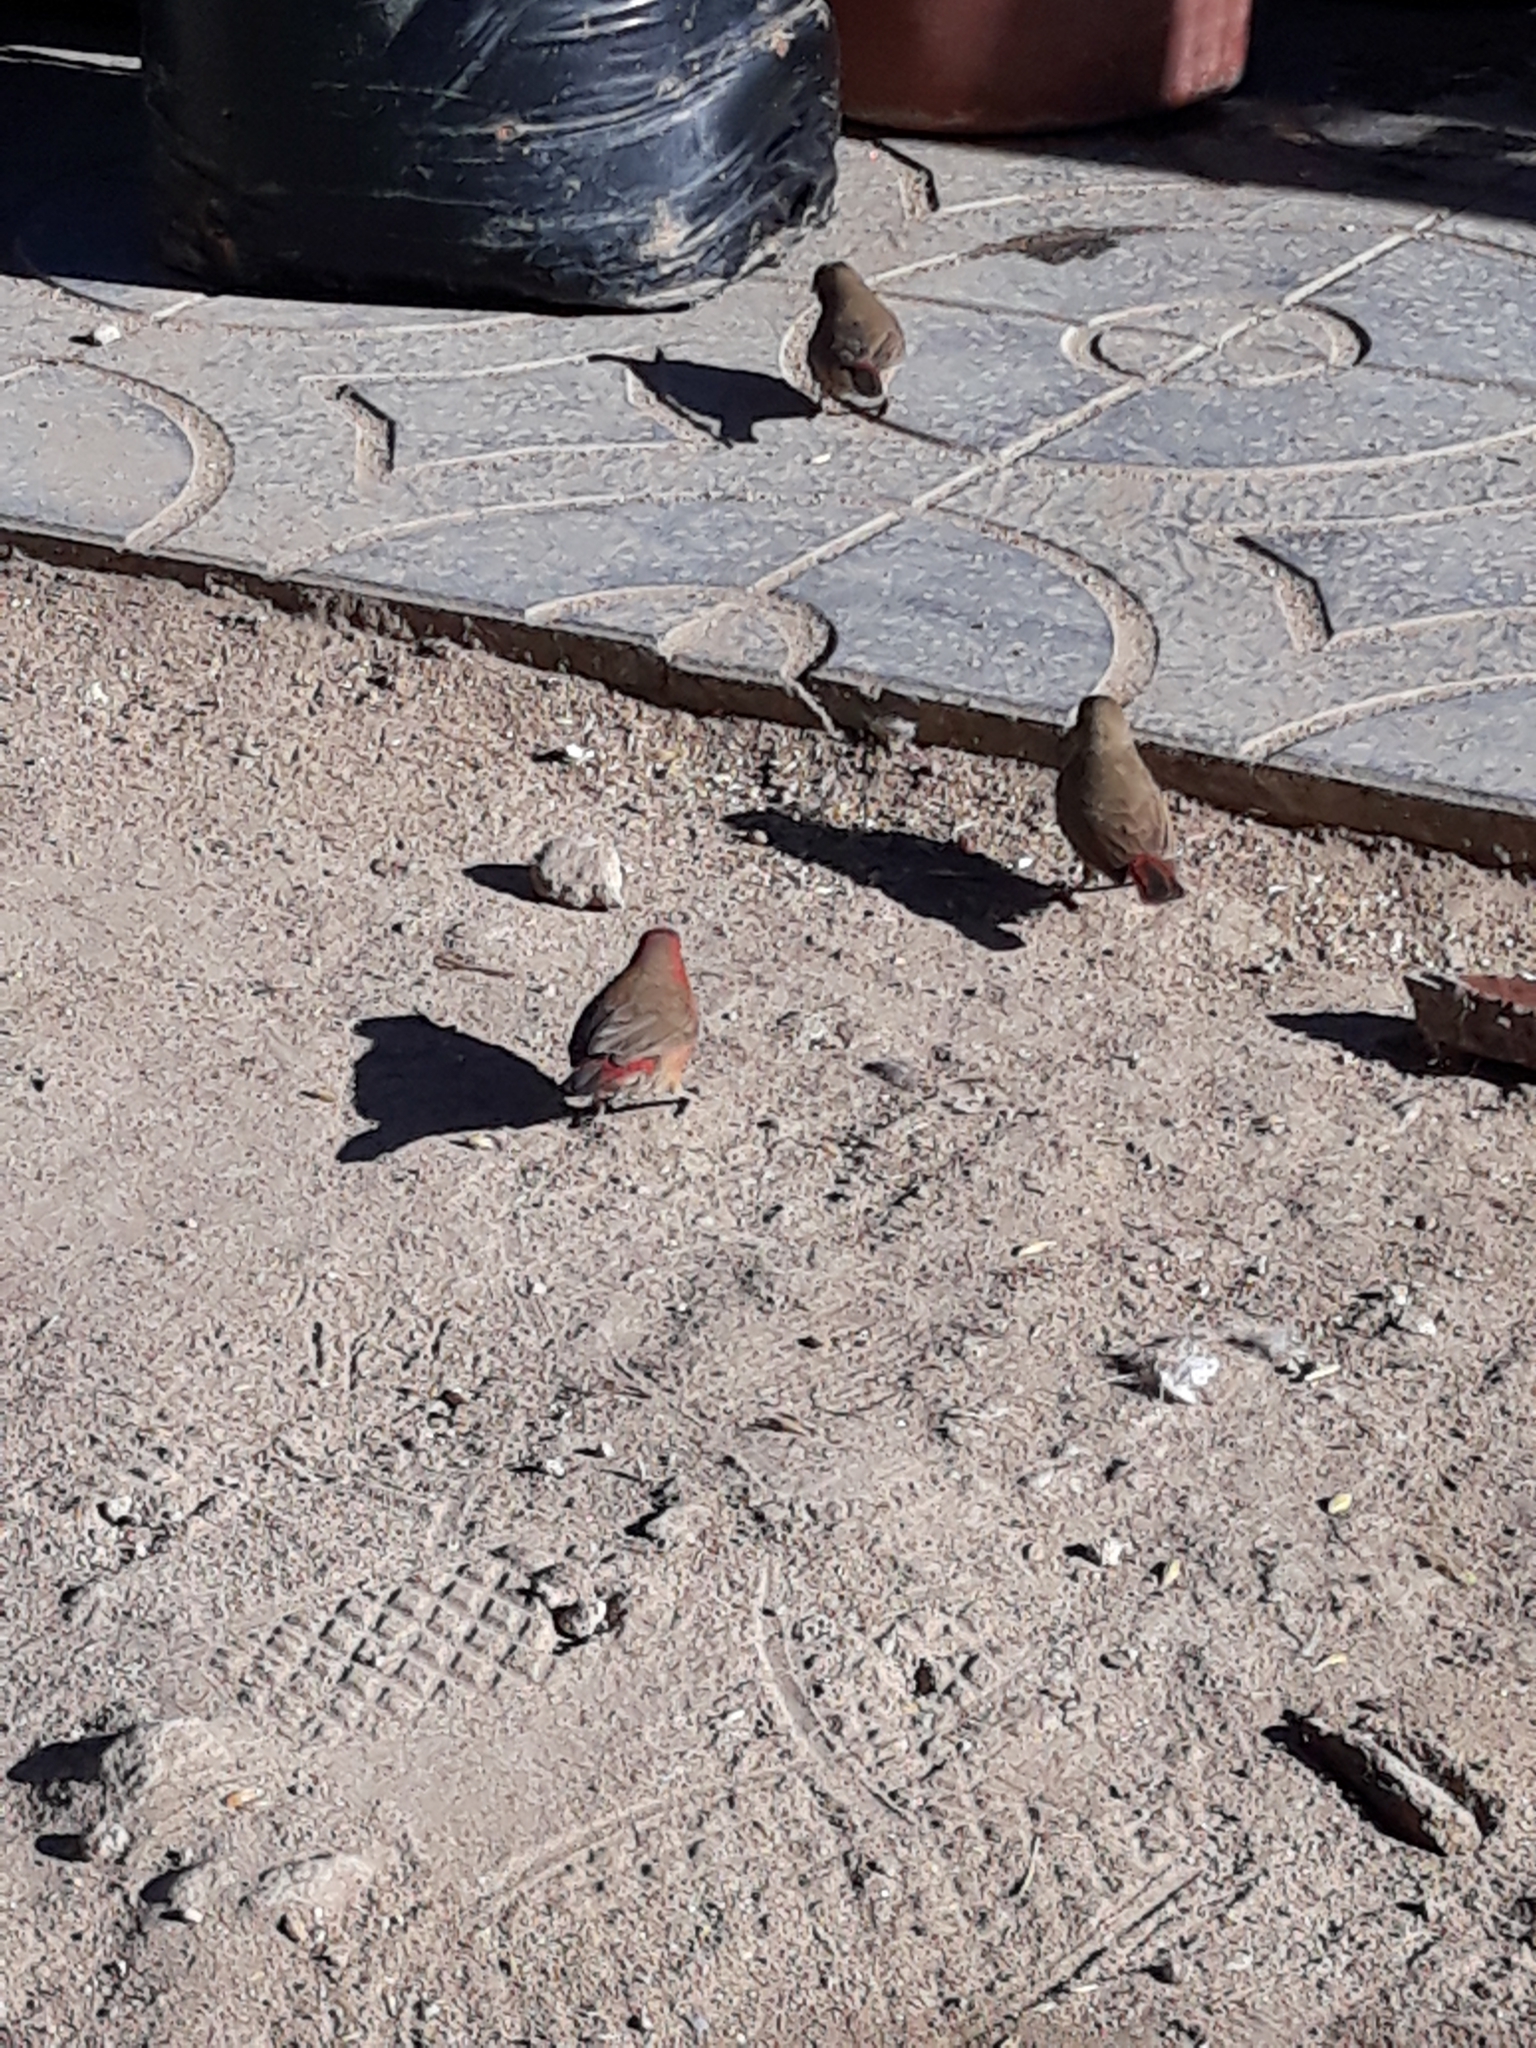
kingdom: Animalia
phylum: Chordata
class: Aves
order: Passeriformes
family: Estrildidae
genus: Lagonosticta
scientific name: Lagonosticta senegala
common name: Red-billed firefinch
